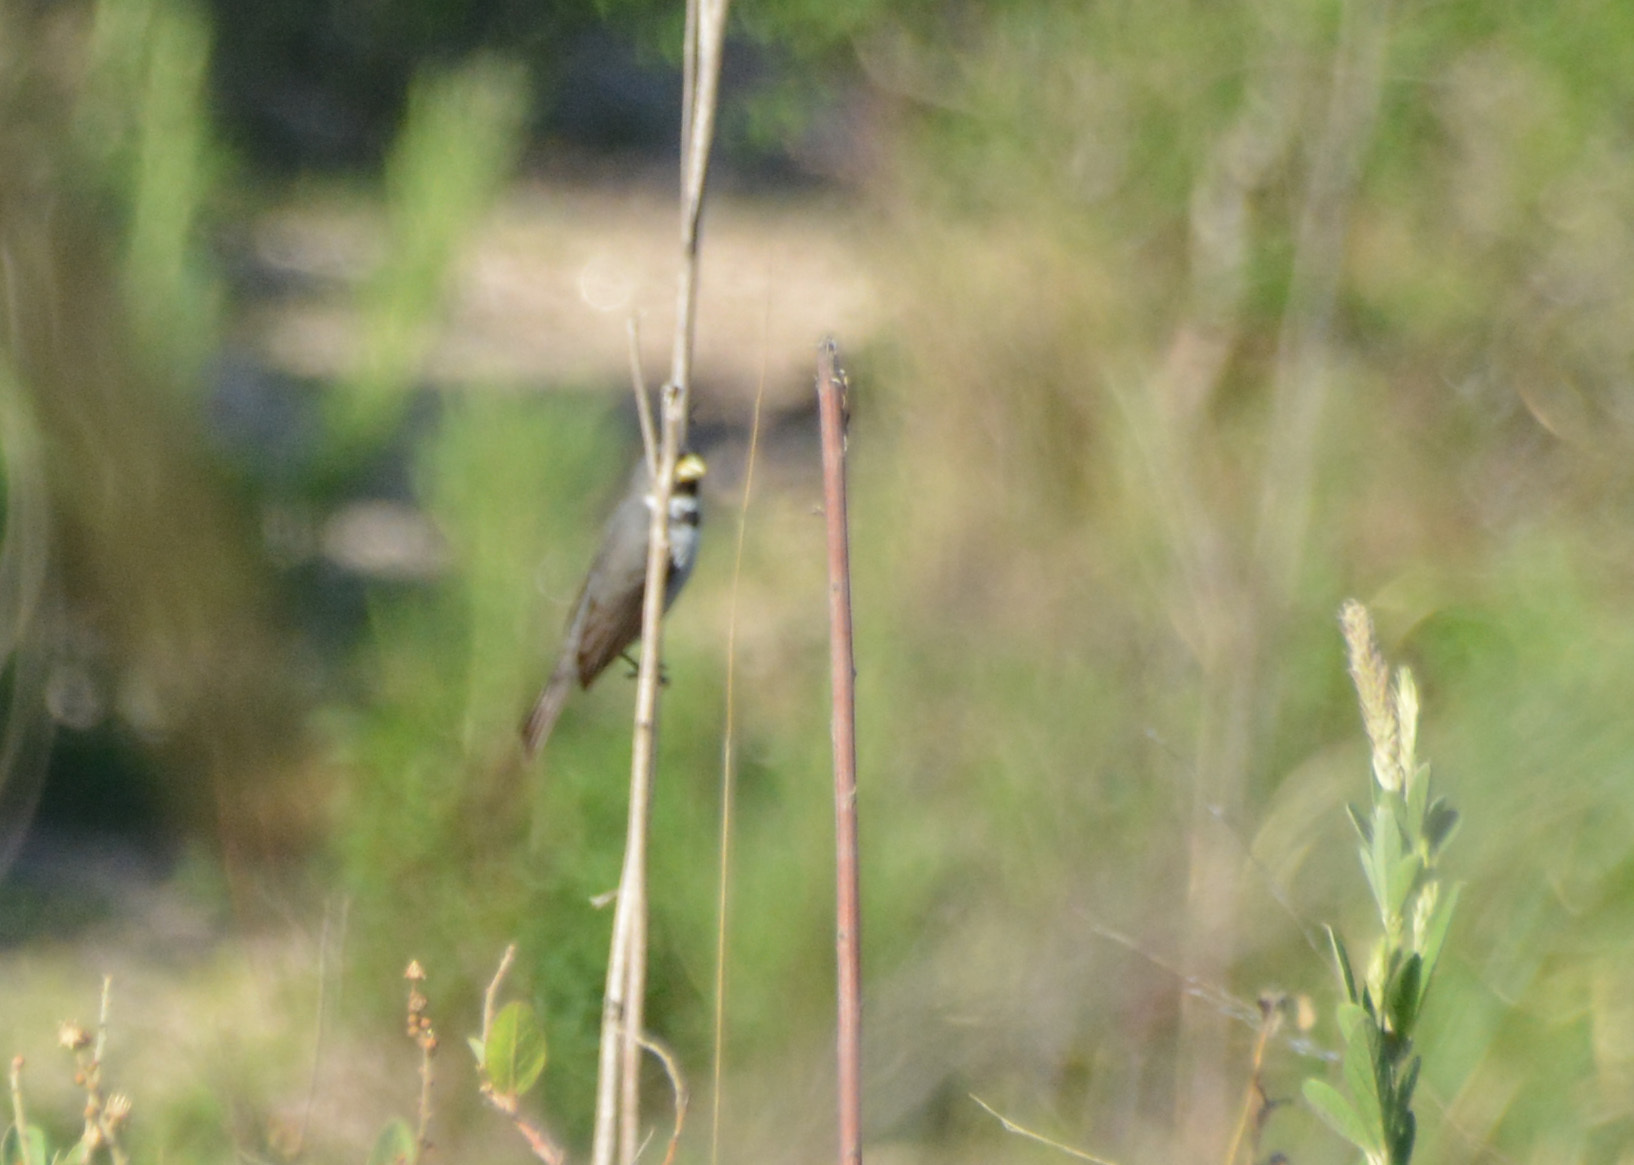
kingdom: Animalia
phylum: Chordata
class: Aves
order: Passeriformes
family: Thraupidae
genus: Sporophila
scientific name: Sporophila caerulescens
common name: Double-collared seedeater
